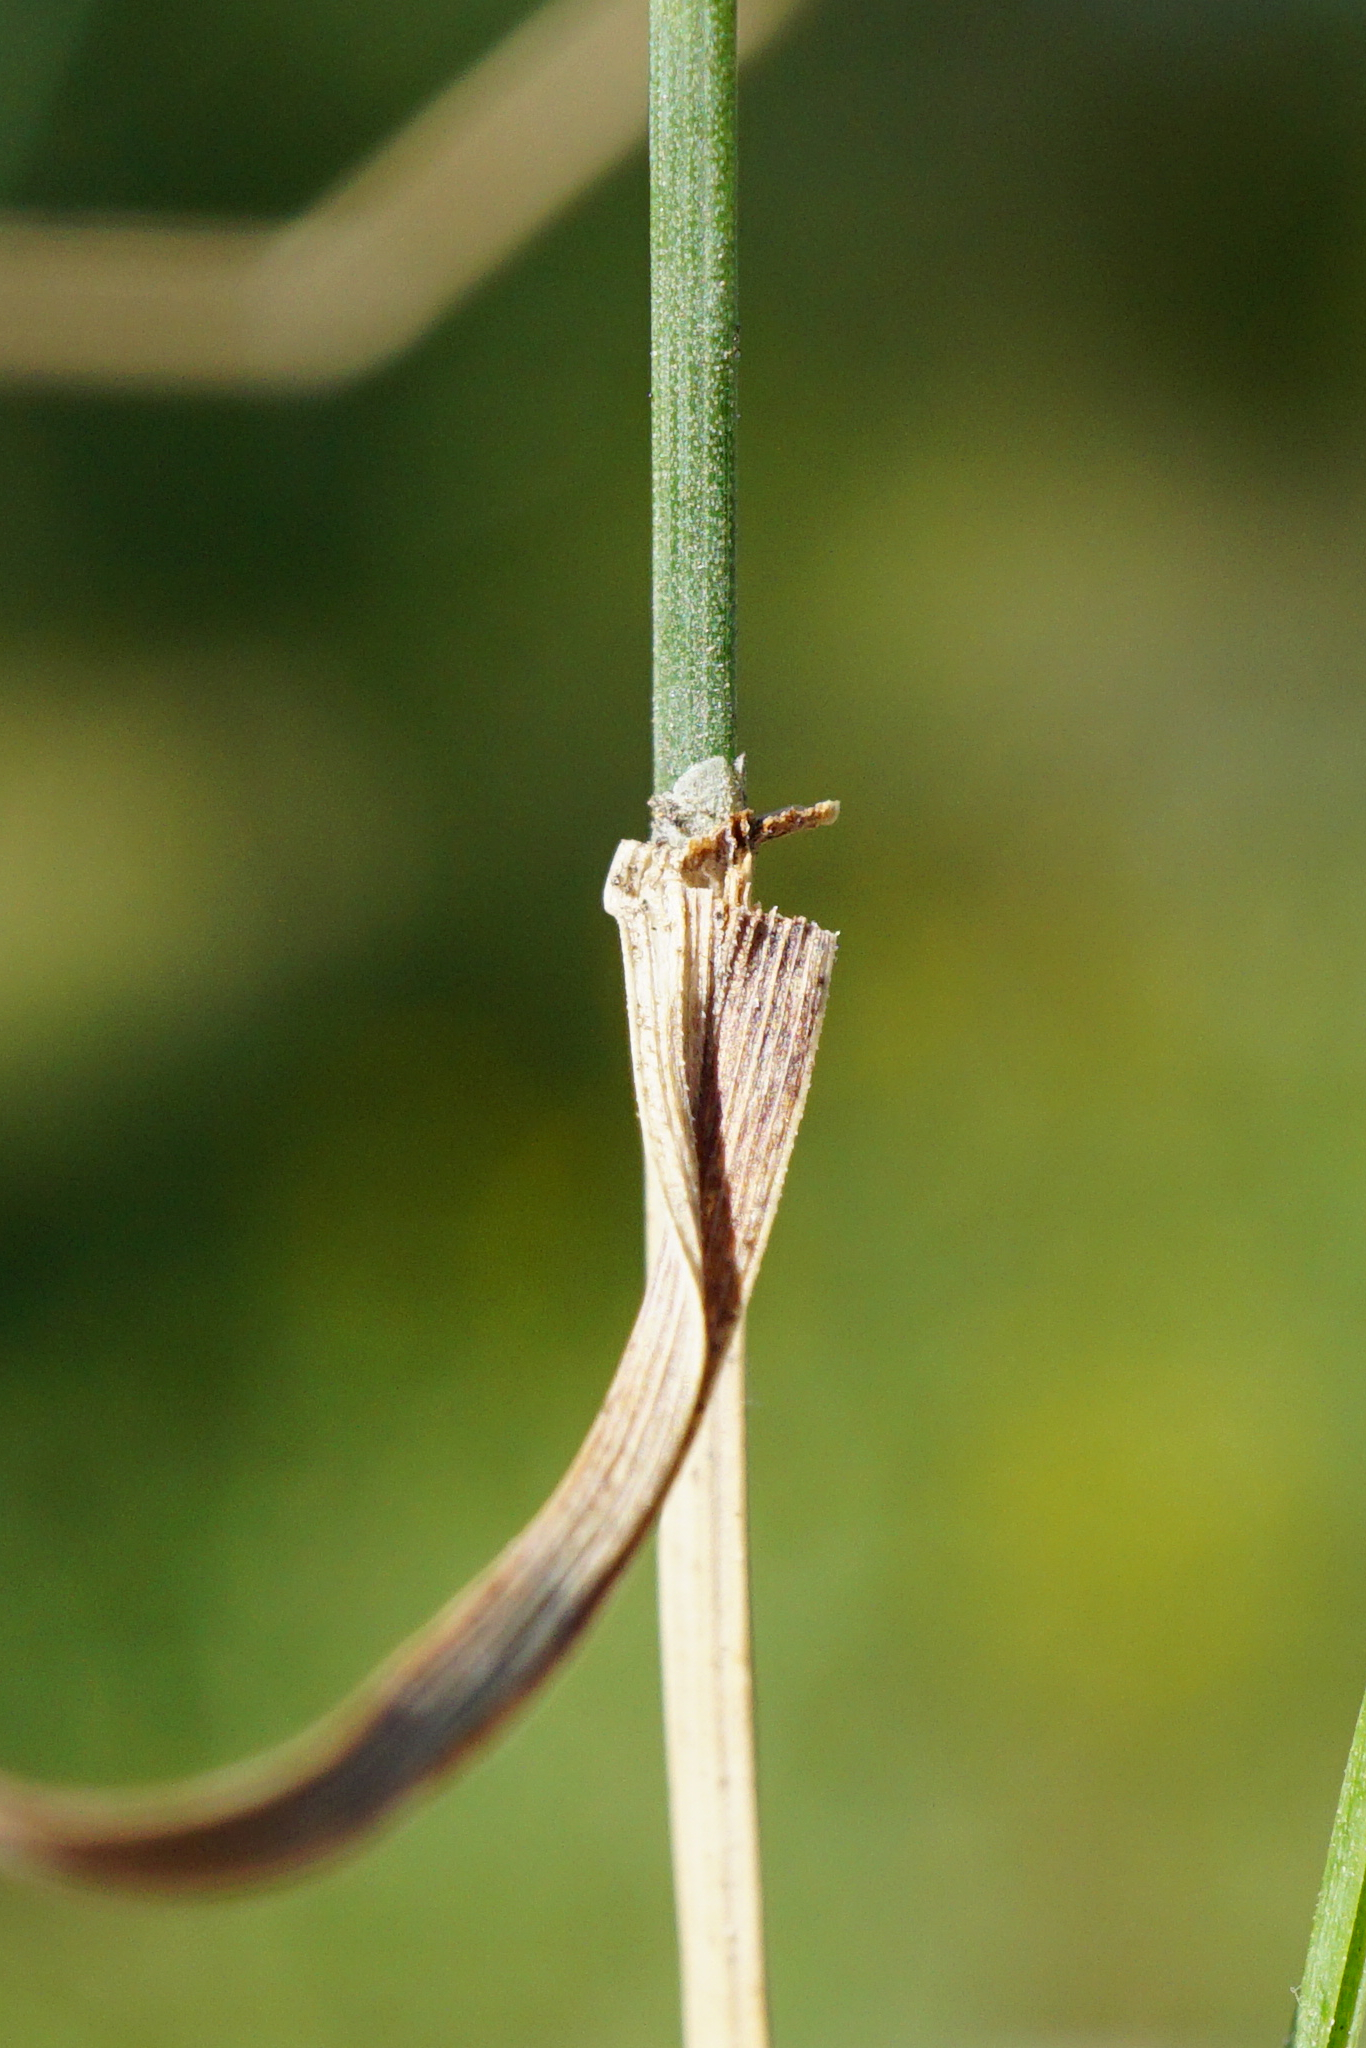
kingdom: Plantae
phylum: Tracheophyta
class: Liliopsida
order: Poales
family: Poaceae
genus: Poa
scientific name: Poa compressa
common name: Canada bluegrass
